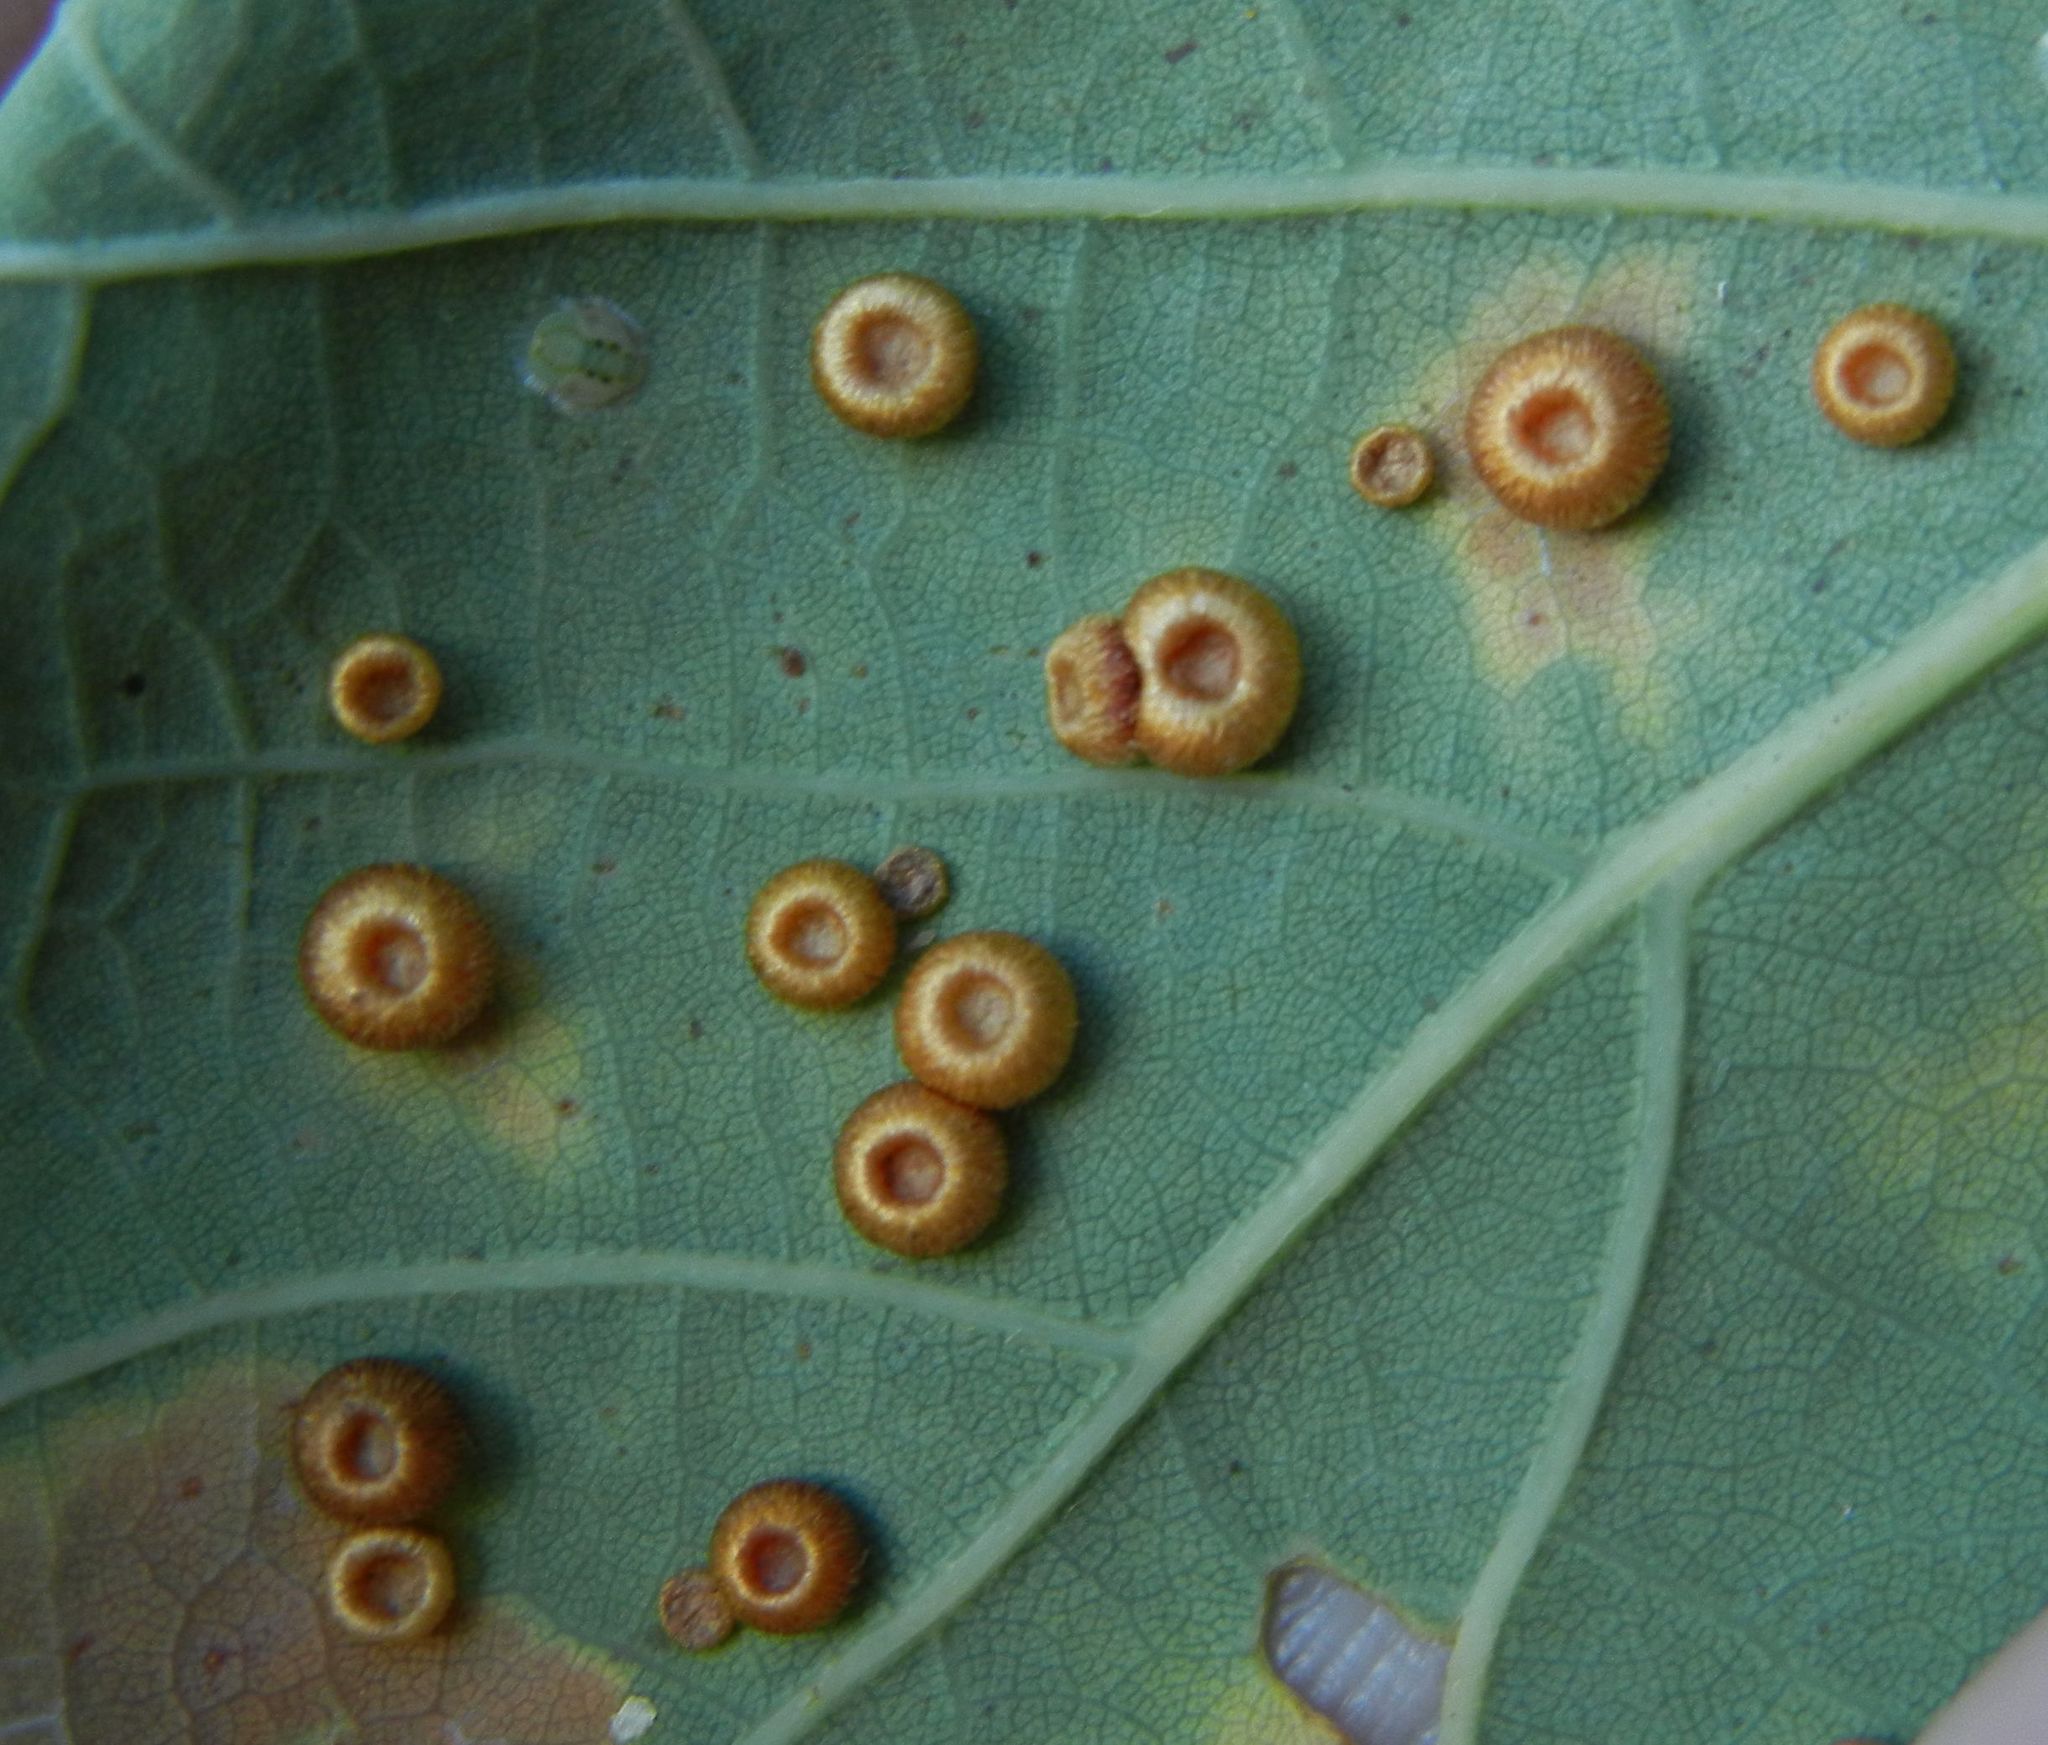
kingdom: Animalia
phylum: Arthropoda
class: Insecta
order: Hymenoptera
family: Cynipidae
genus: Neuroterus
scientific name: Neuroterus numismalis
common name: Silk-button spangle gall
